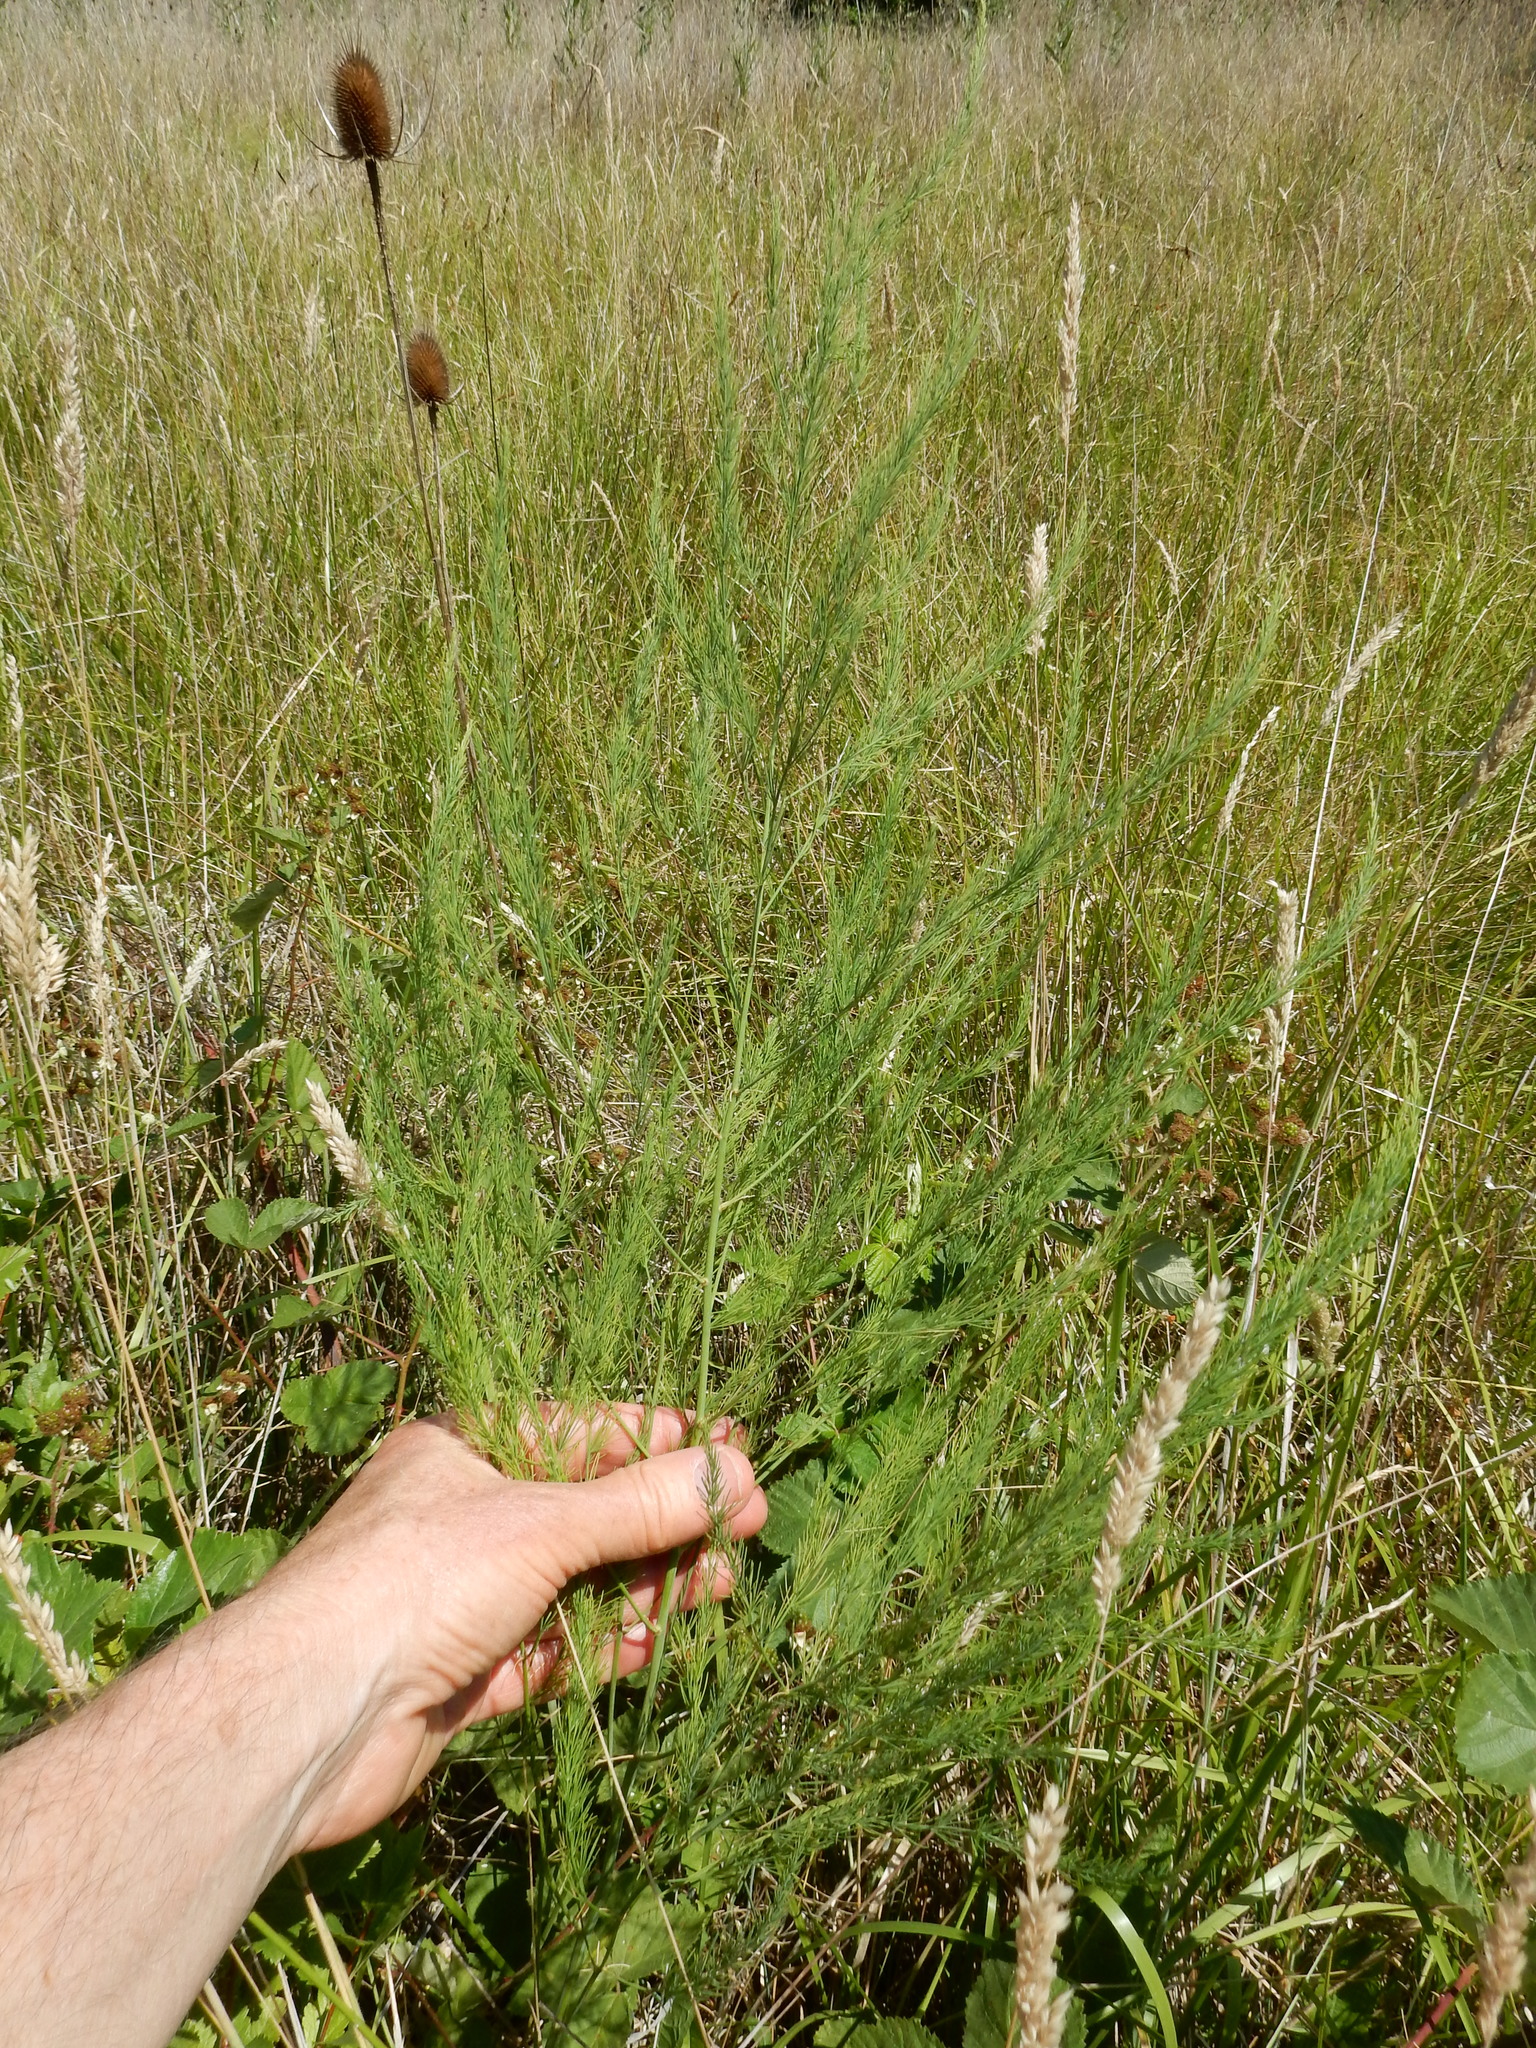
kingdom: Plantae
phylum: Tracheophyta
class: Liliopsida
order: Asparagales
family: Asparagaceae
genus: Asparagus
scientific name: Asparagus officinalis
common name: Garden asparagus
